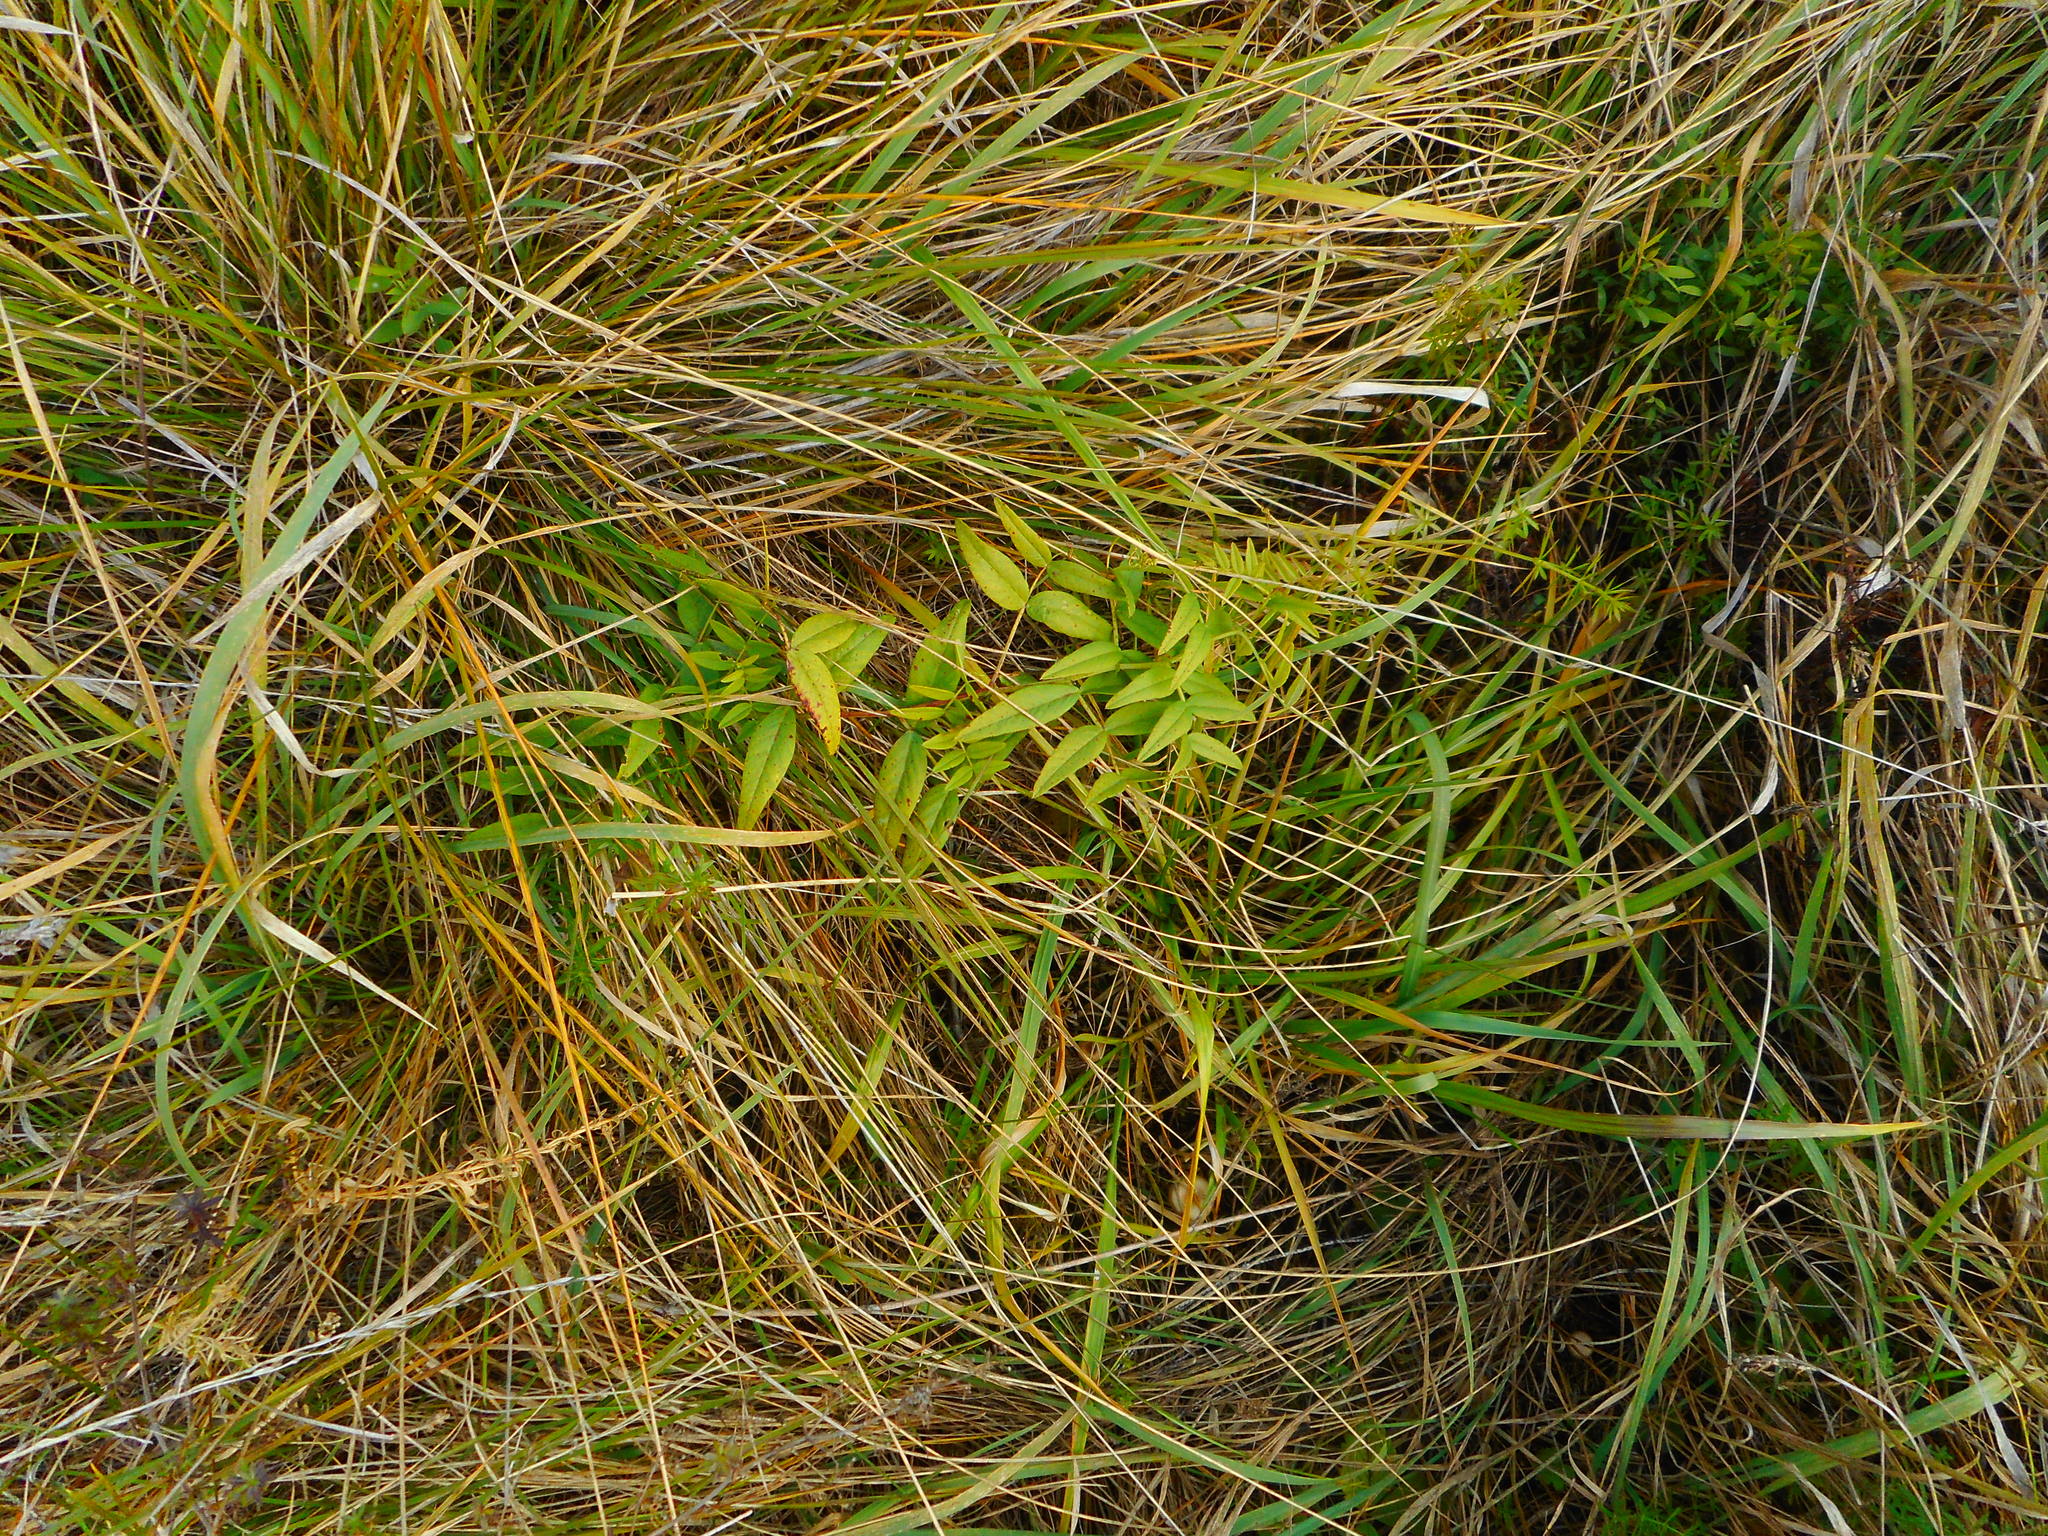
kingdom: Plantae
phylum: Tracheophyta
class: Magnoliopsida
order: Fabales
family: Fabaceae
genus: Vicia
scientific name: Vicia sepium
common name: Bush vetch
